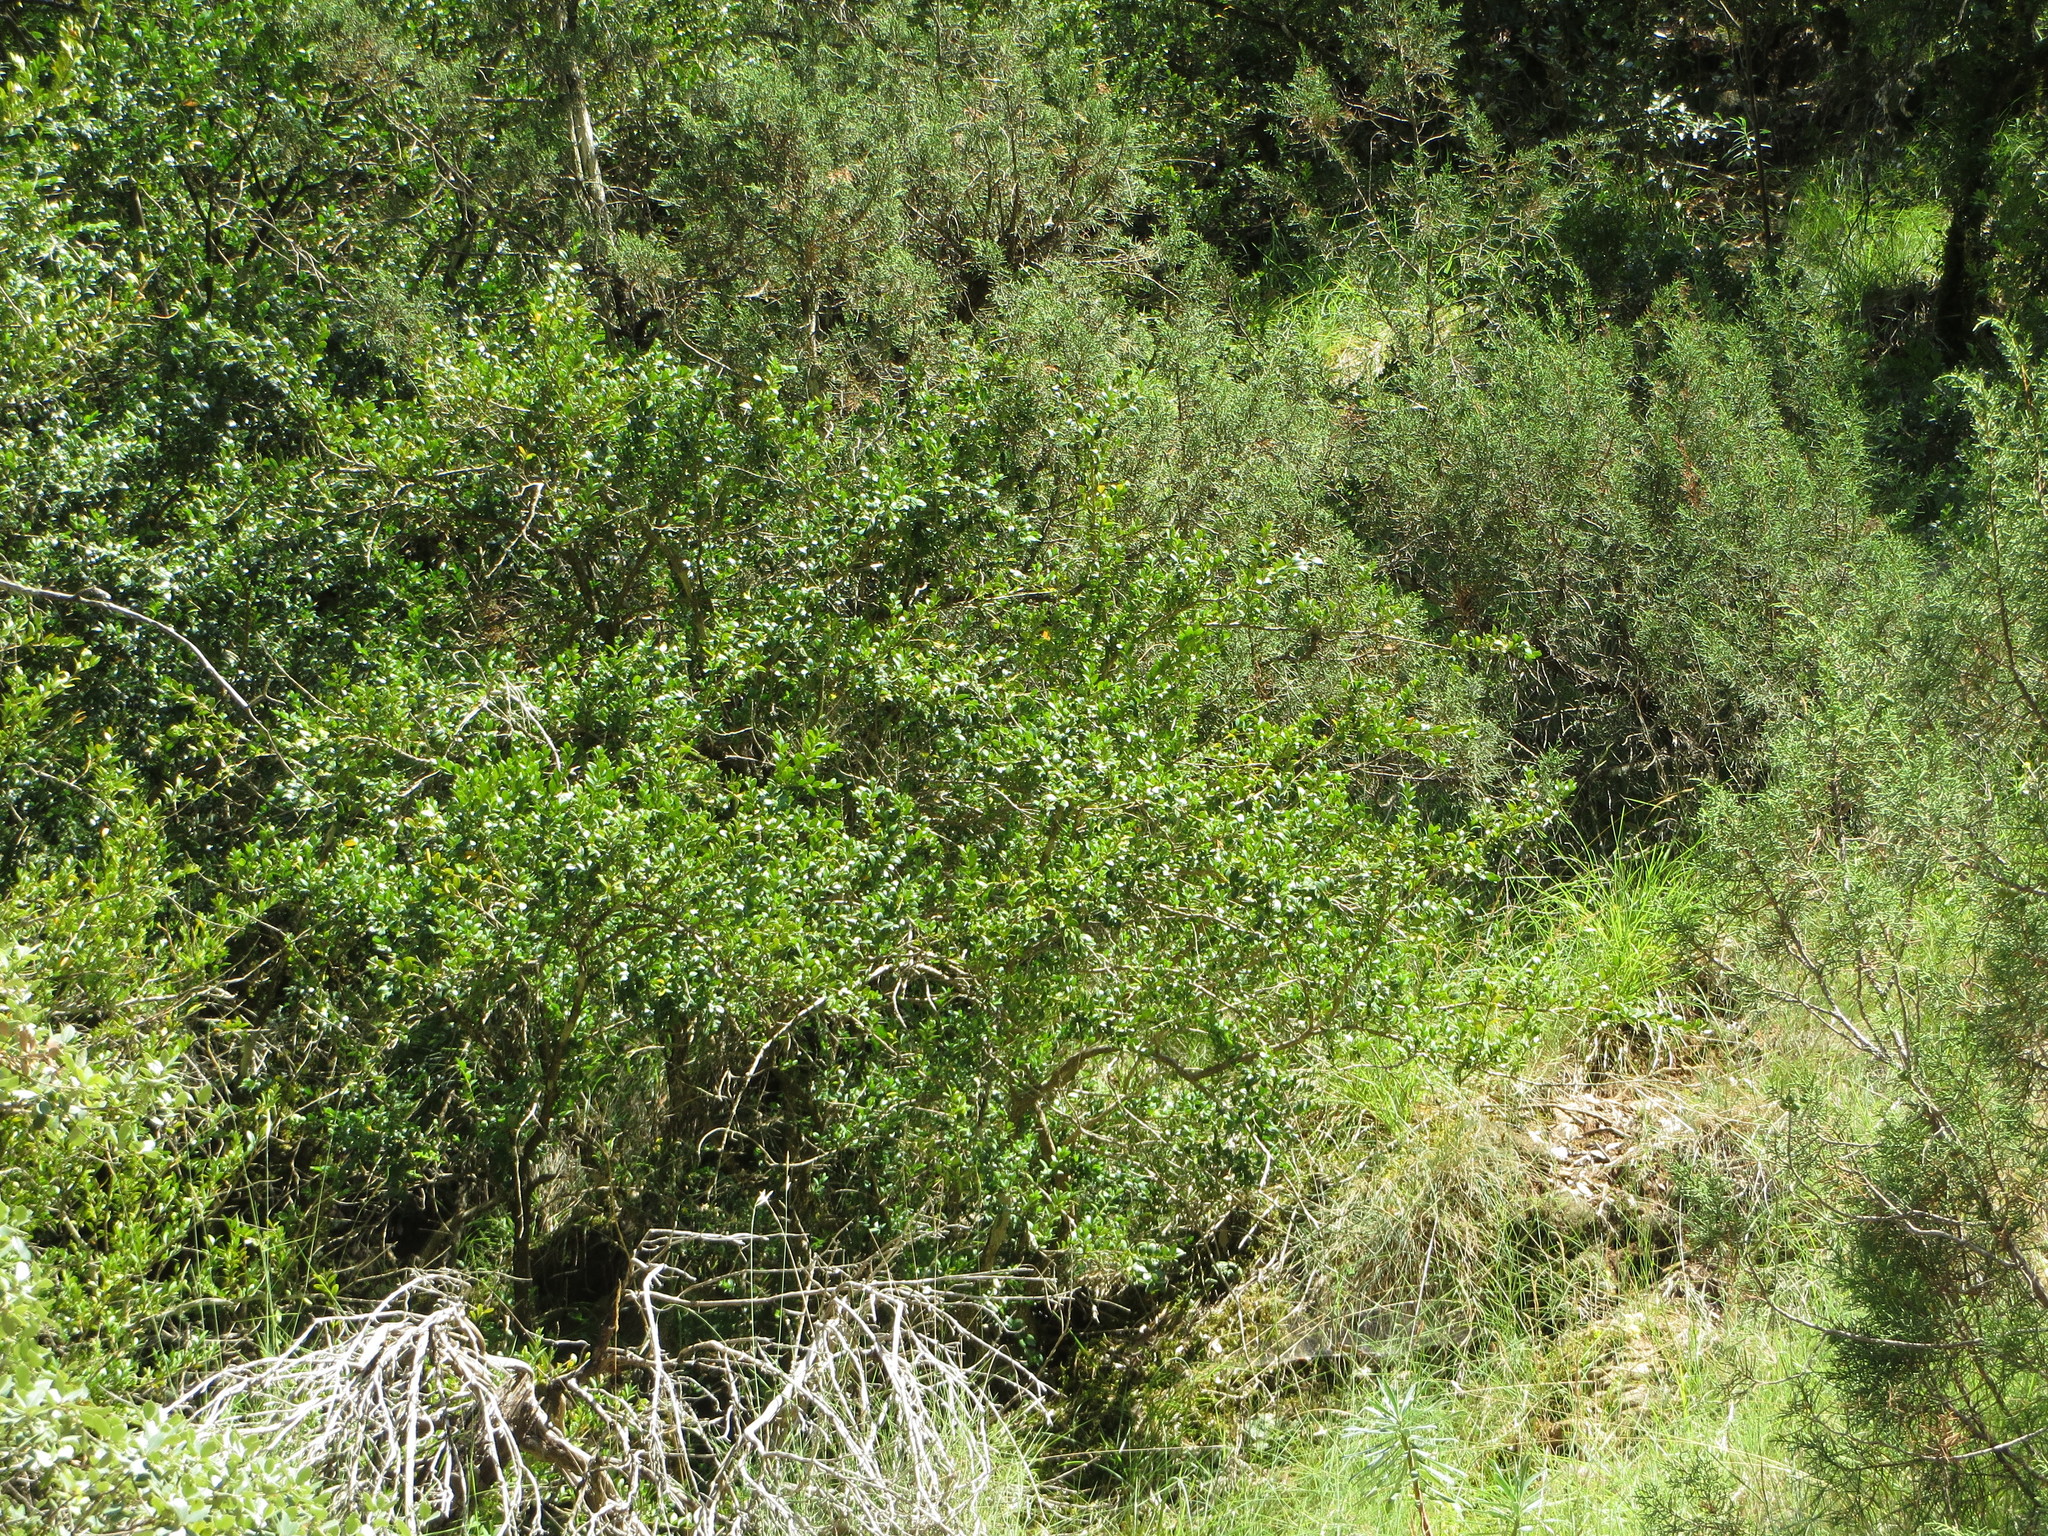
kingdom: Plantae
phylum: Tracheophyta
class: Magnoliopsida
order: Buxales
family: Buxaceae
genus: Buxus
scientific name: Buxus sempervirens
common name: Box
